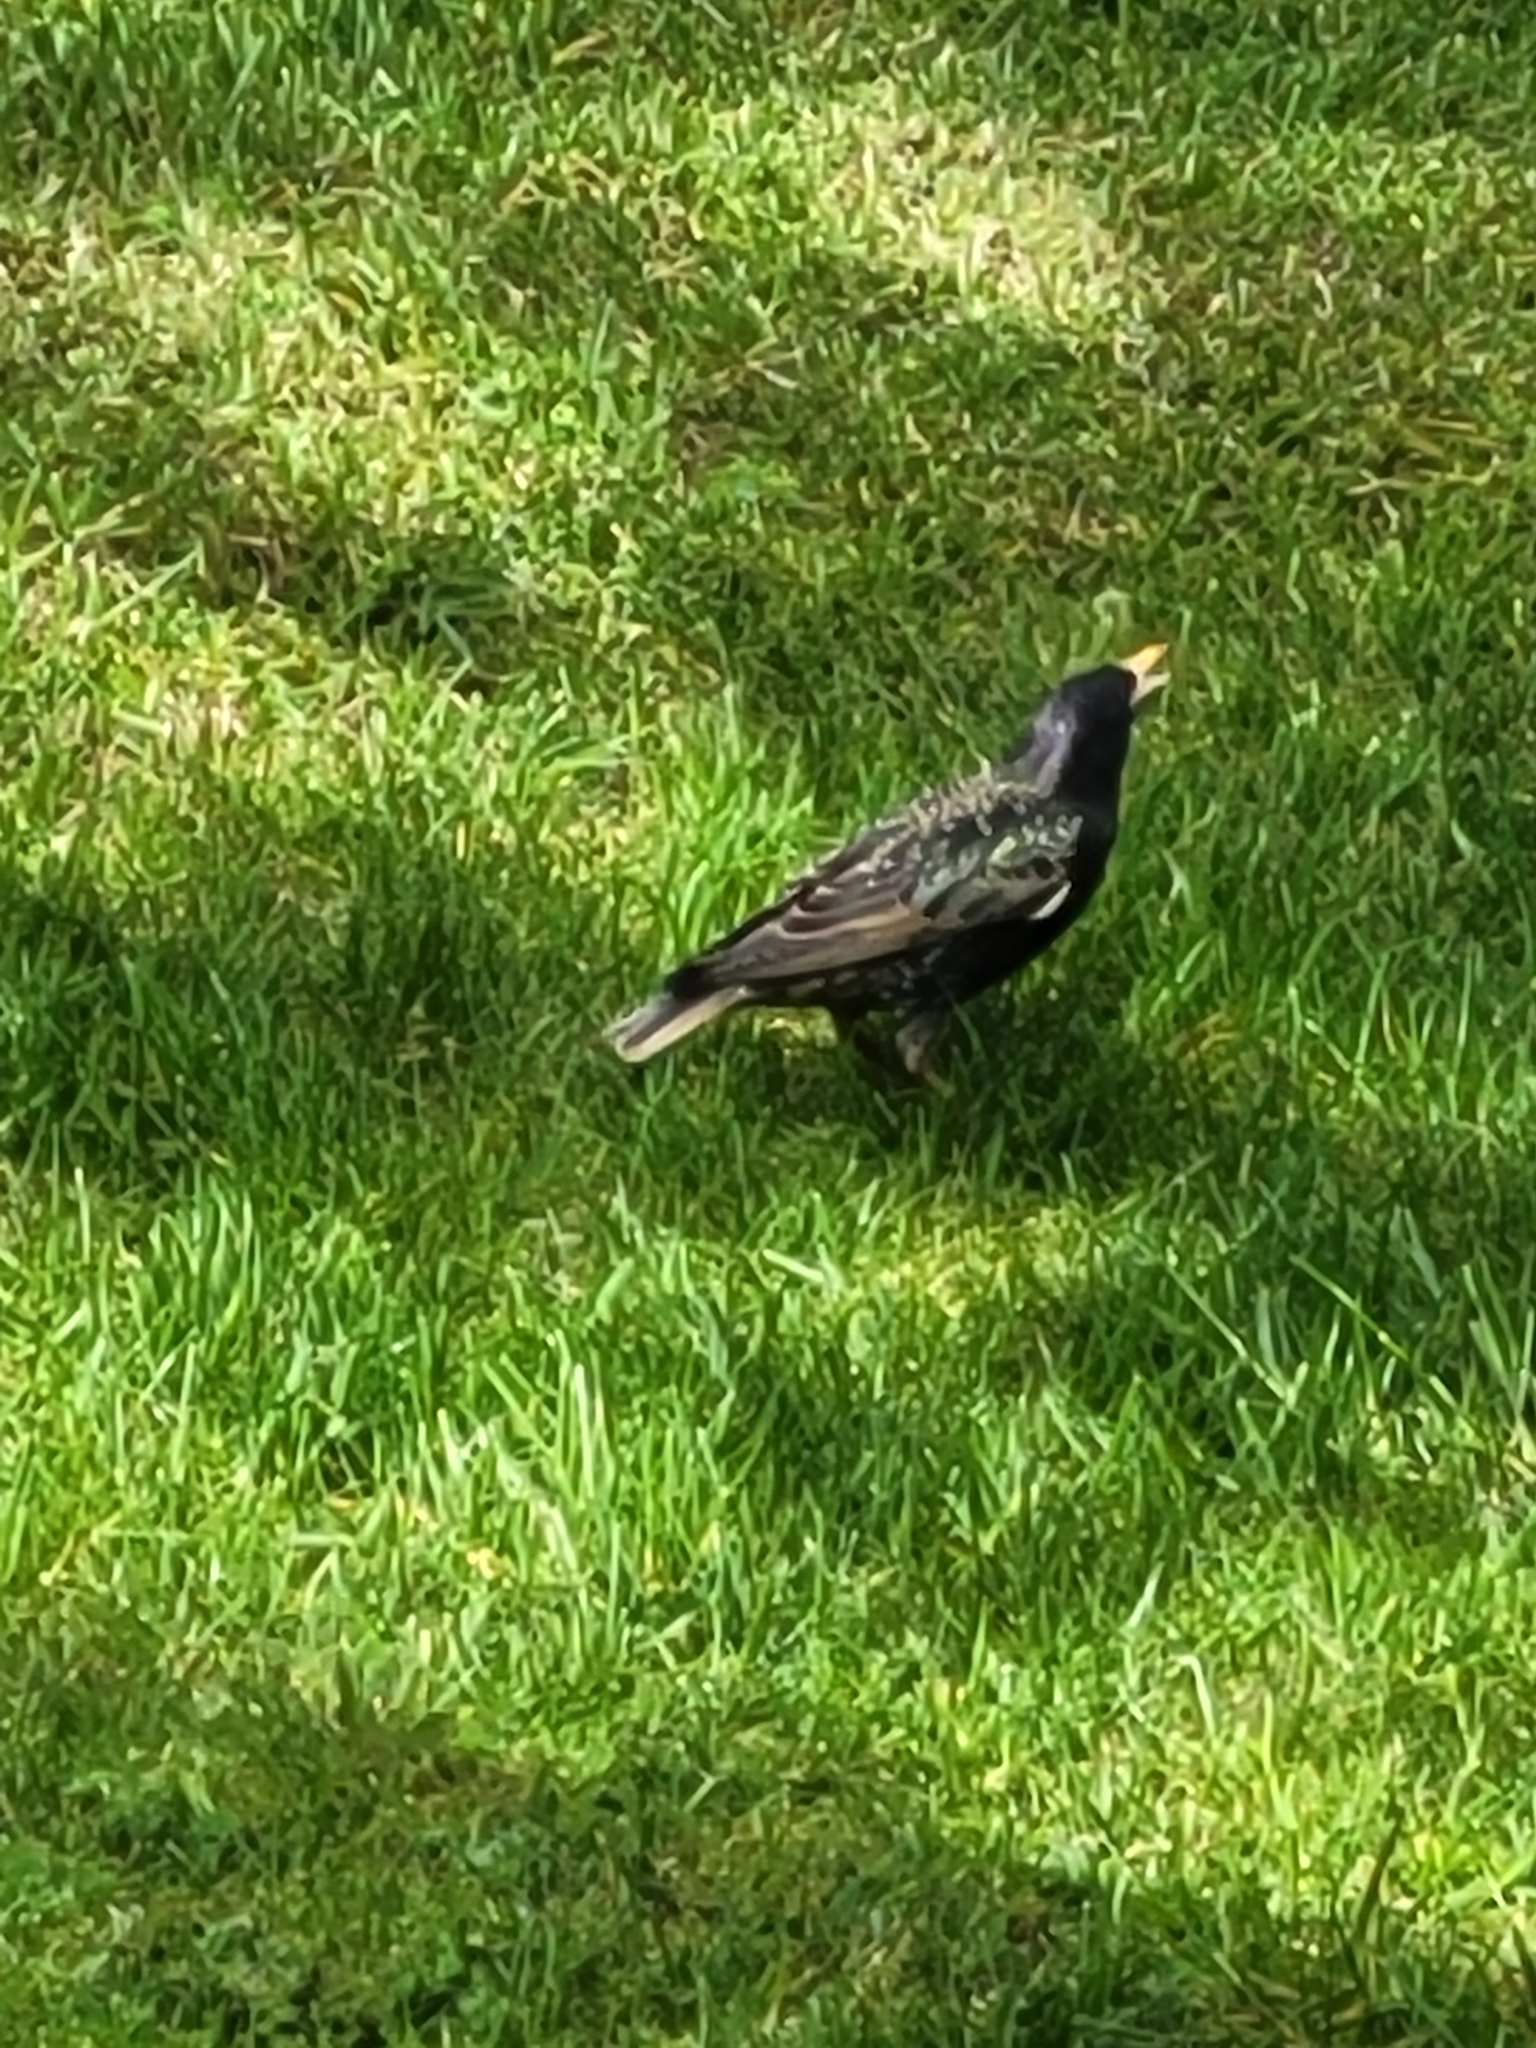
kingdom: Animalia
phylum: Chordata
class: Aves
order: Passeriformes
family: Sturnidae
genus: Sturnus
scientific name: Sturnus vulgaris
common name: Common starling
